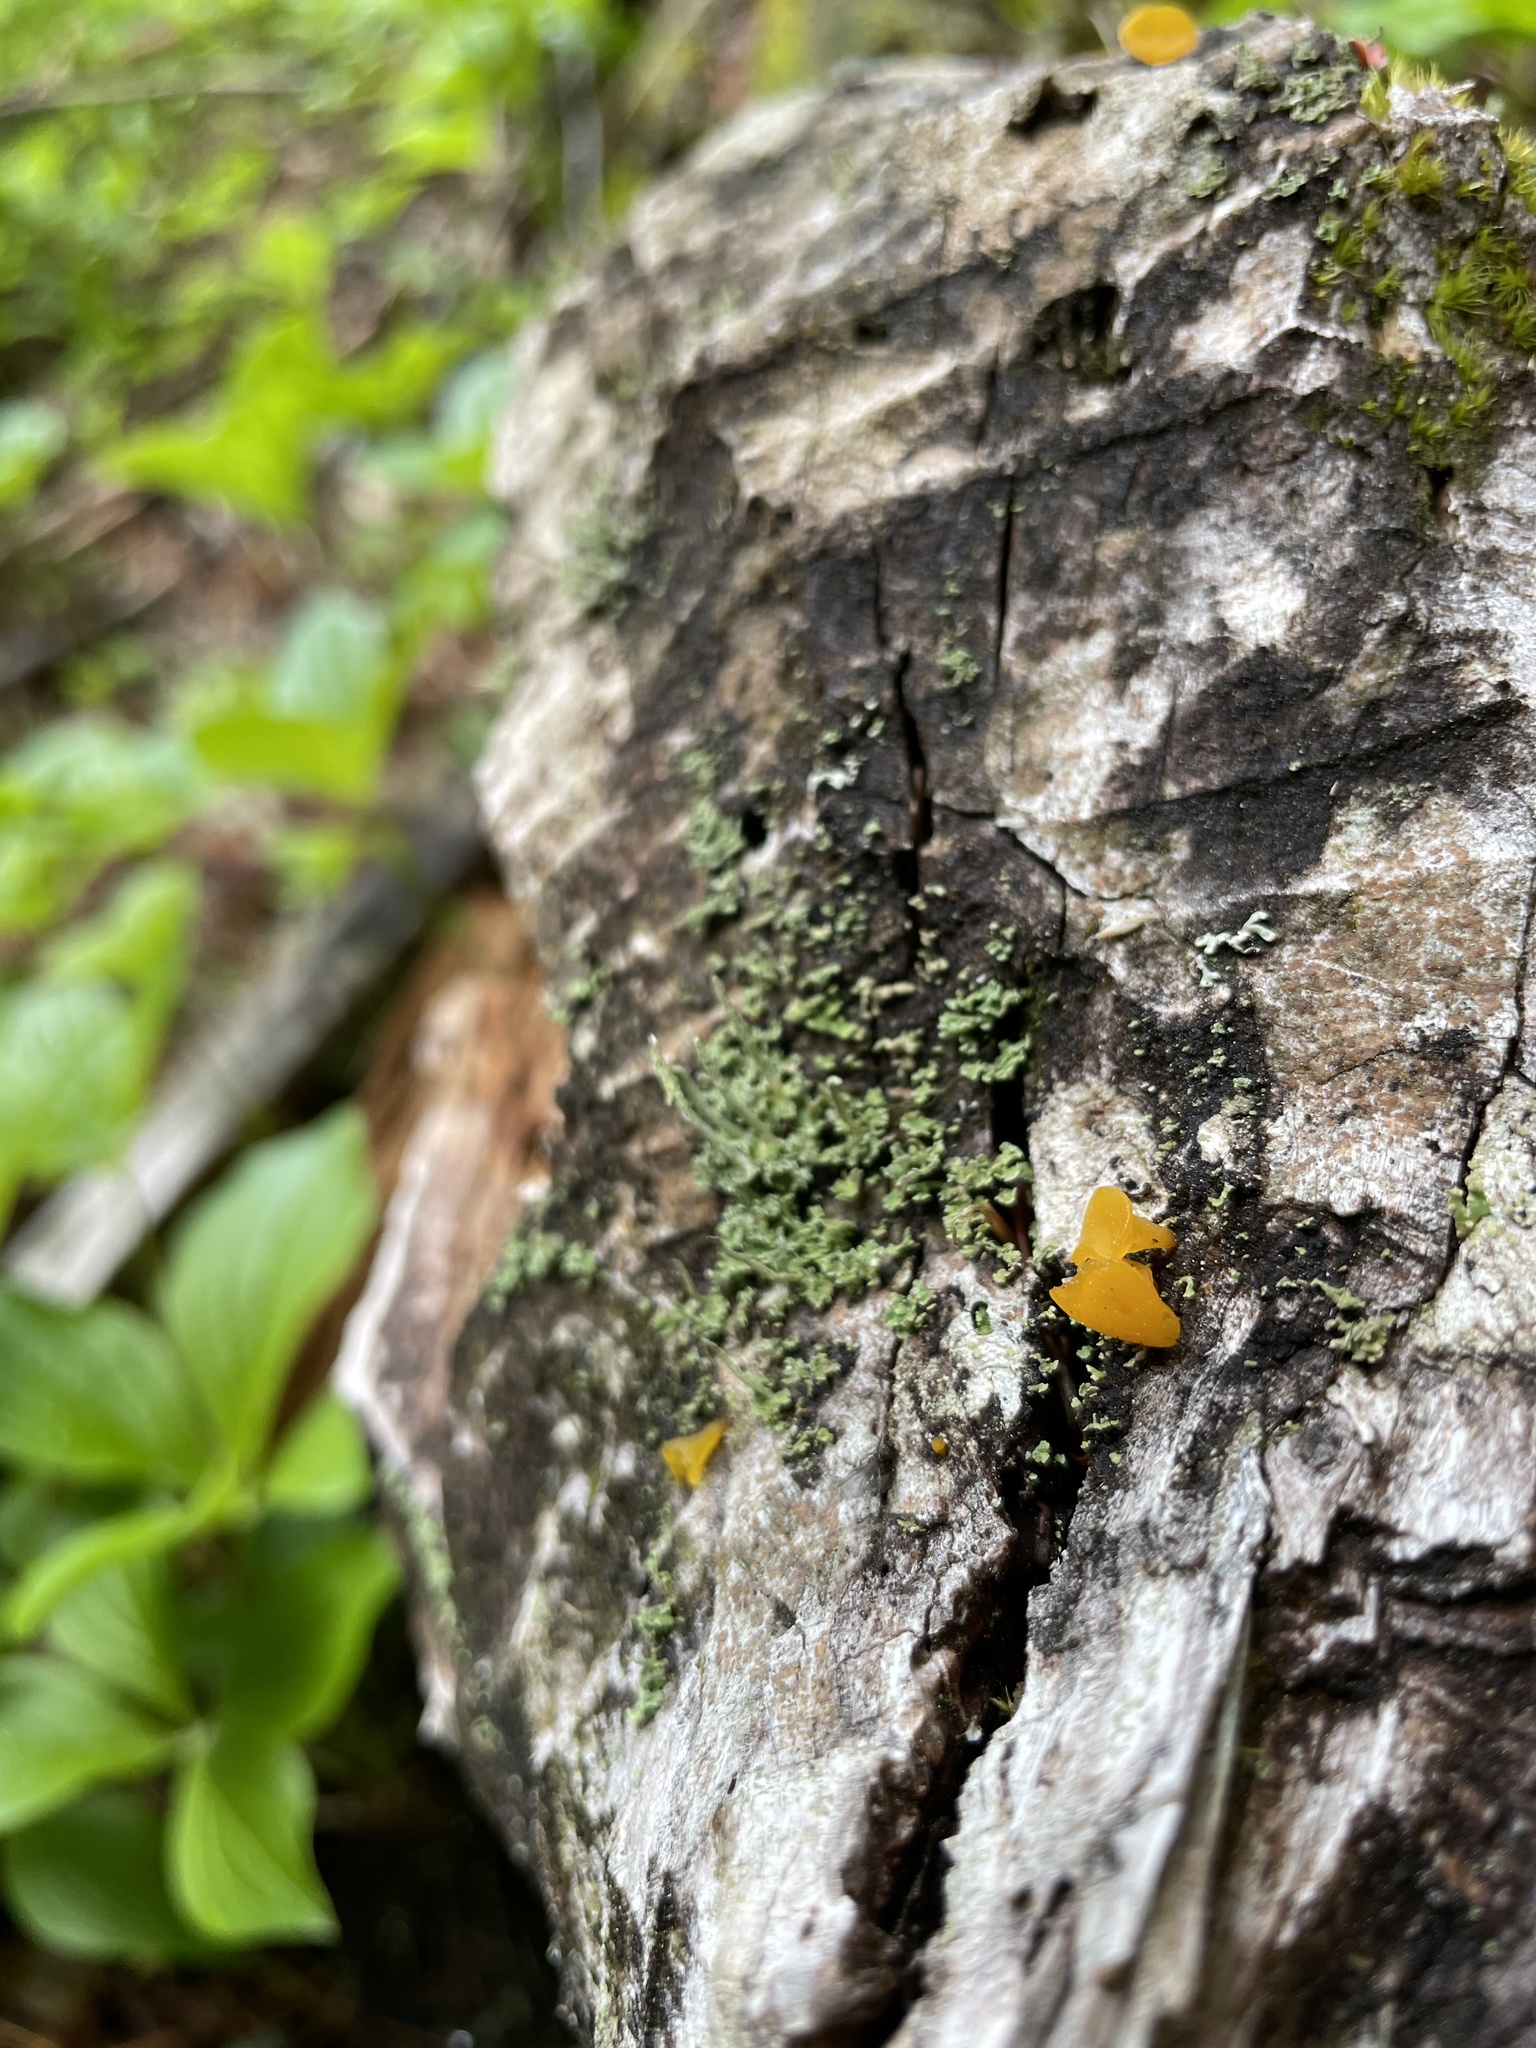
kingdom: Fungi
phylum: Basidiomycota
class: Dacrymycetes
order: Dacrymycetales
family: Dacrymycetaceae
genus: Guepiniopsis
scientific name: Guepiniopsis alpina
